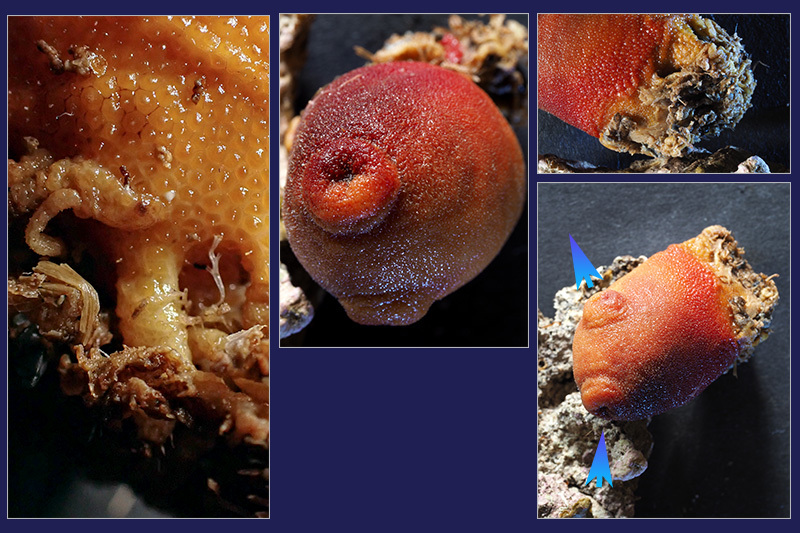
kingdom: Animalia
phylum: Chordata
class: Ascidiacea
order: Stolidobranchia
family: Pyuridae
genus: Halocynthia
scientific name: Halocynthia papillosa
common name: Red sea-squirt
